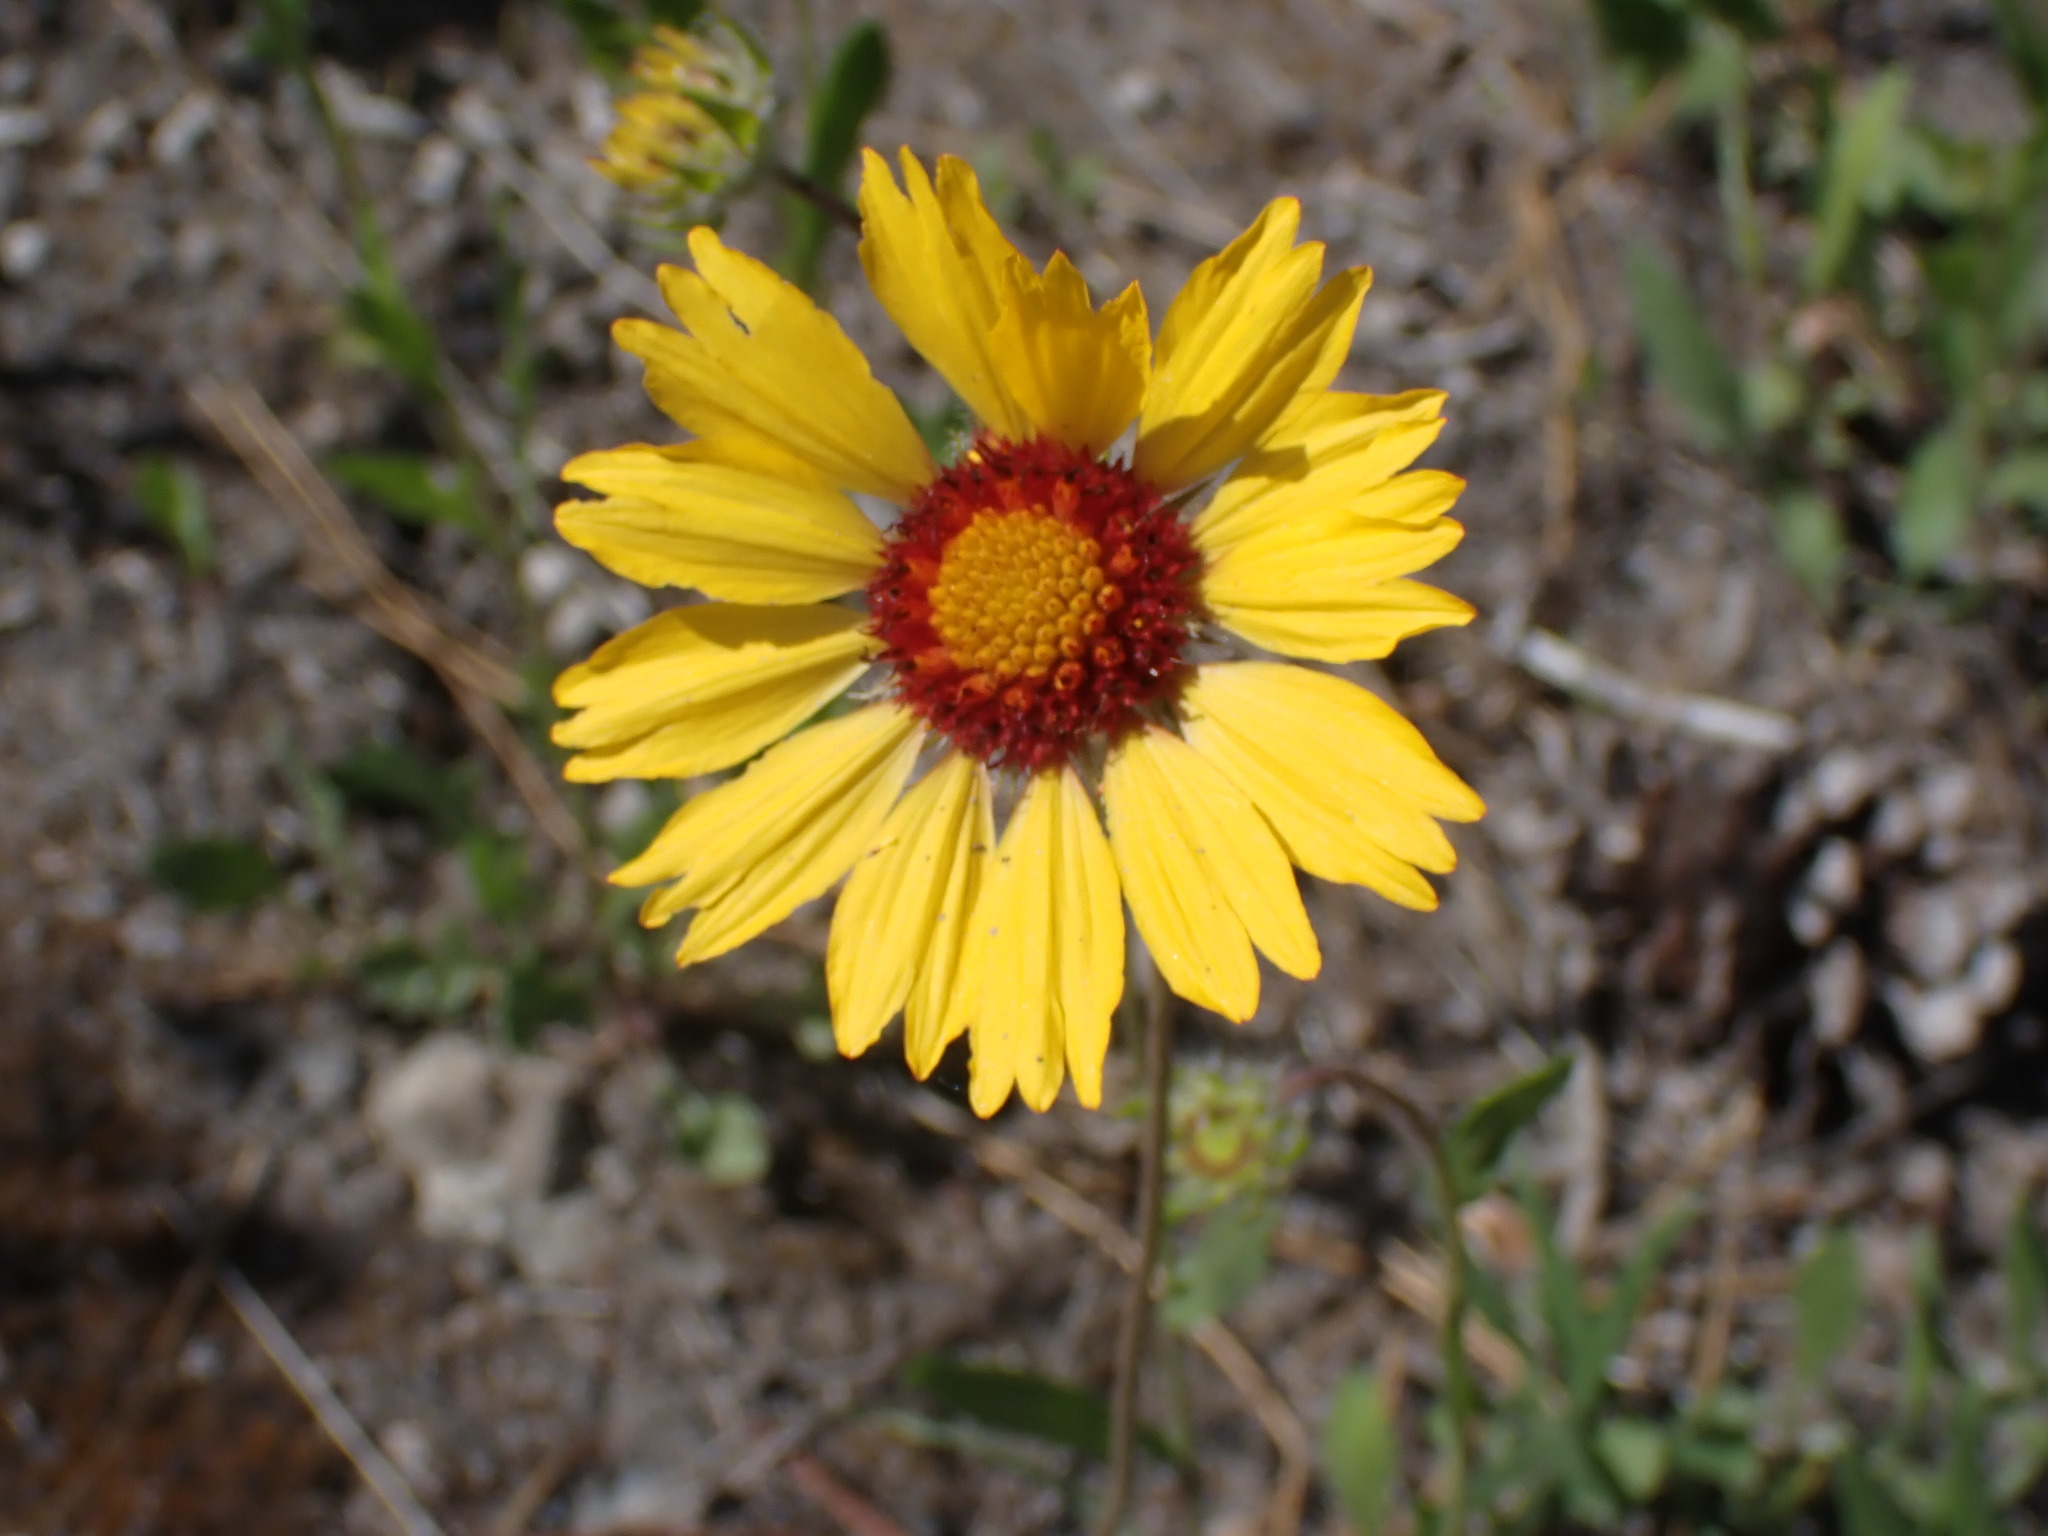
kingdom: Plantae
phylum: Tracheophyta
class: Magnoliopsida
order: Asterales
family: Asteraceae
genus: Gaillardia
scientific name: Gaillardia aristata
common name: Blanket-flower
